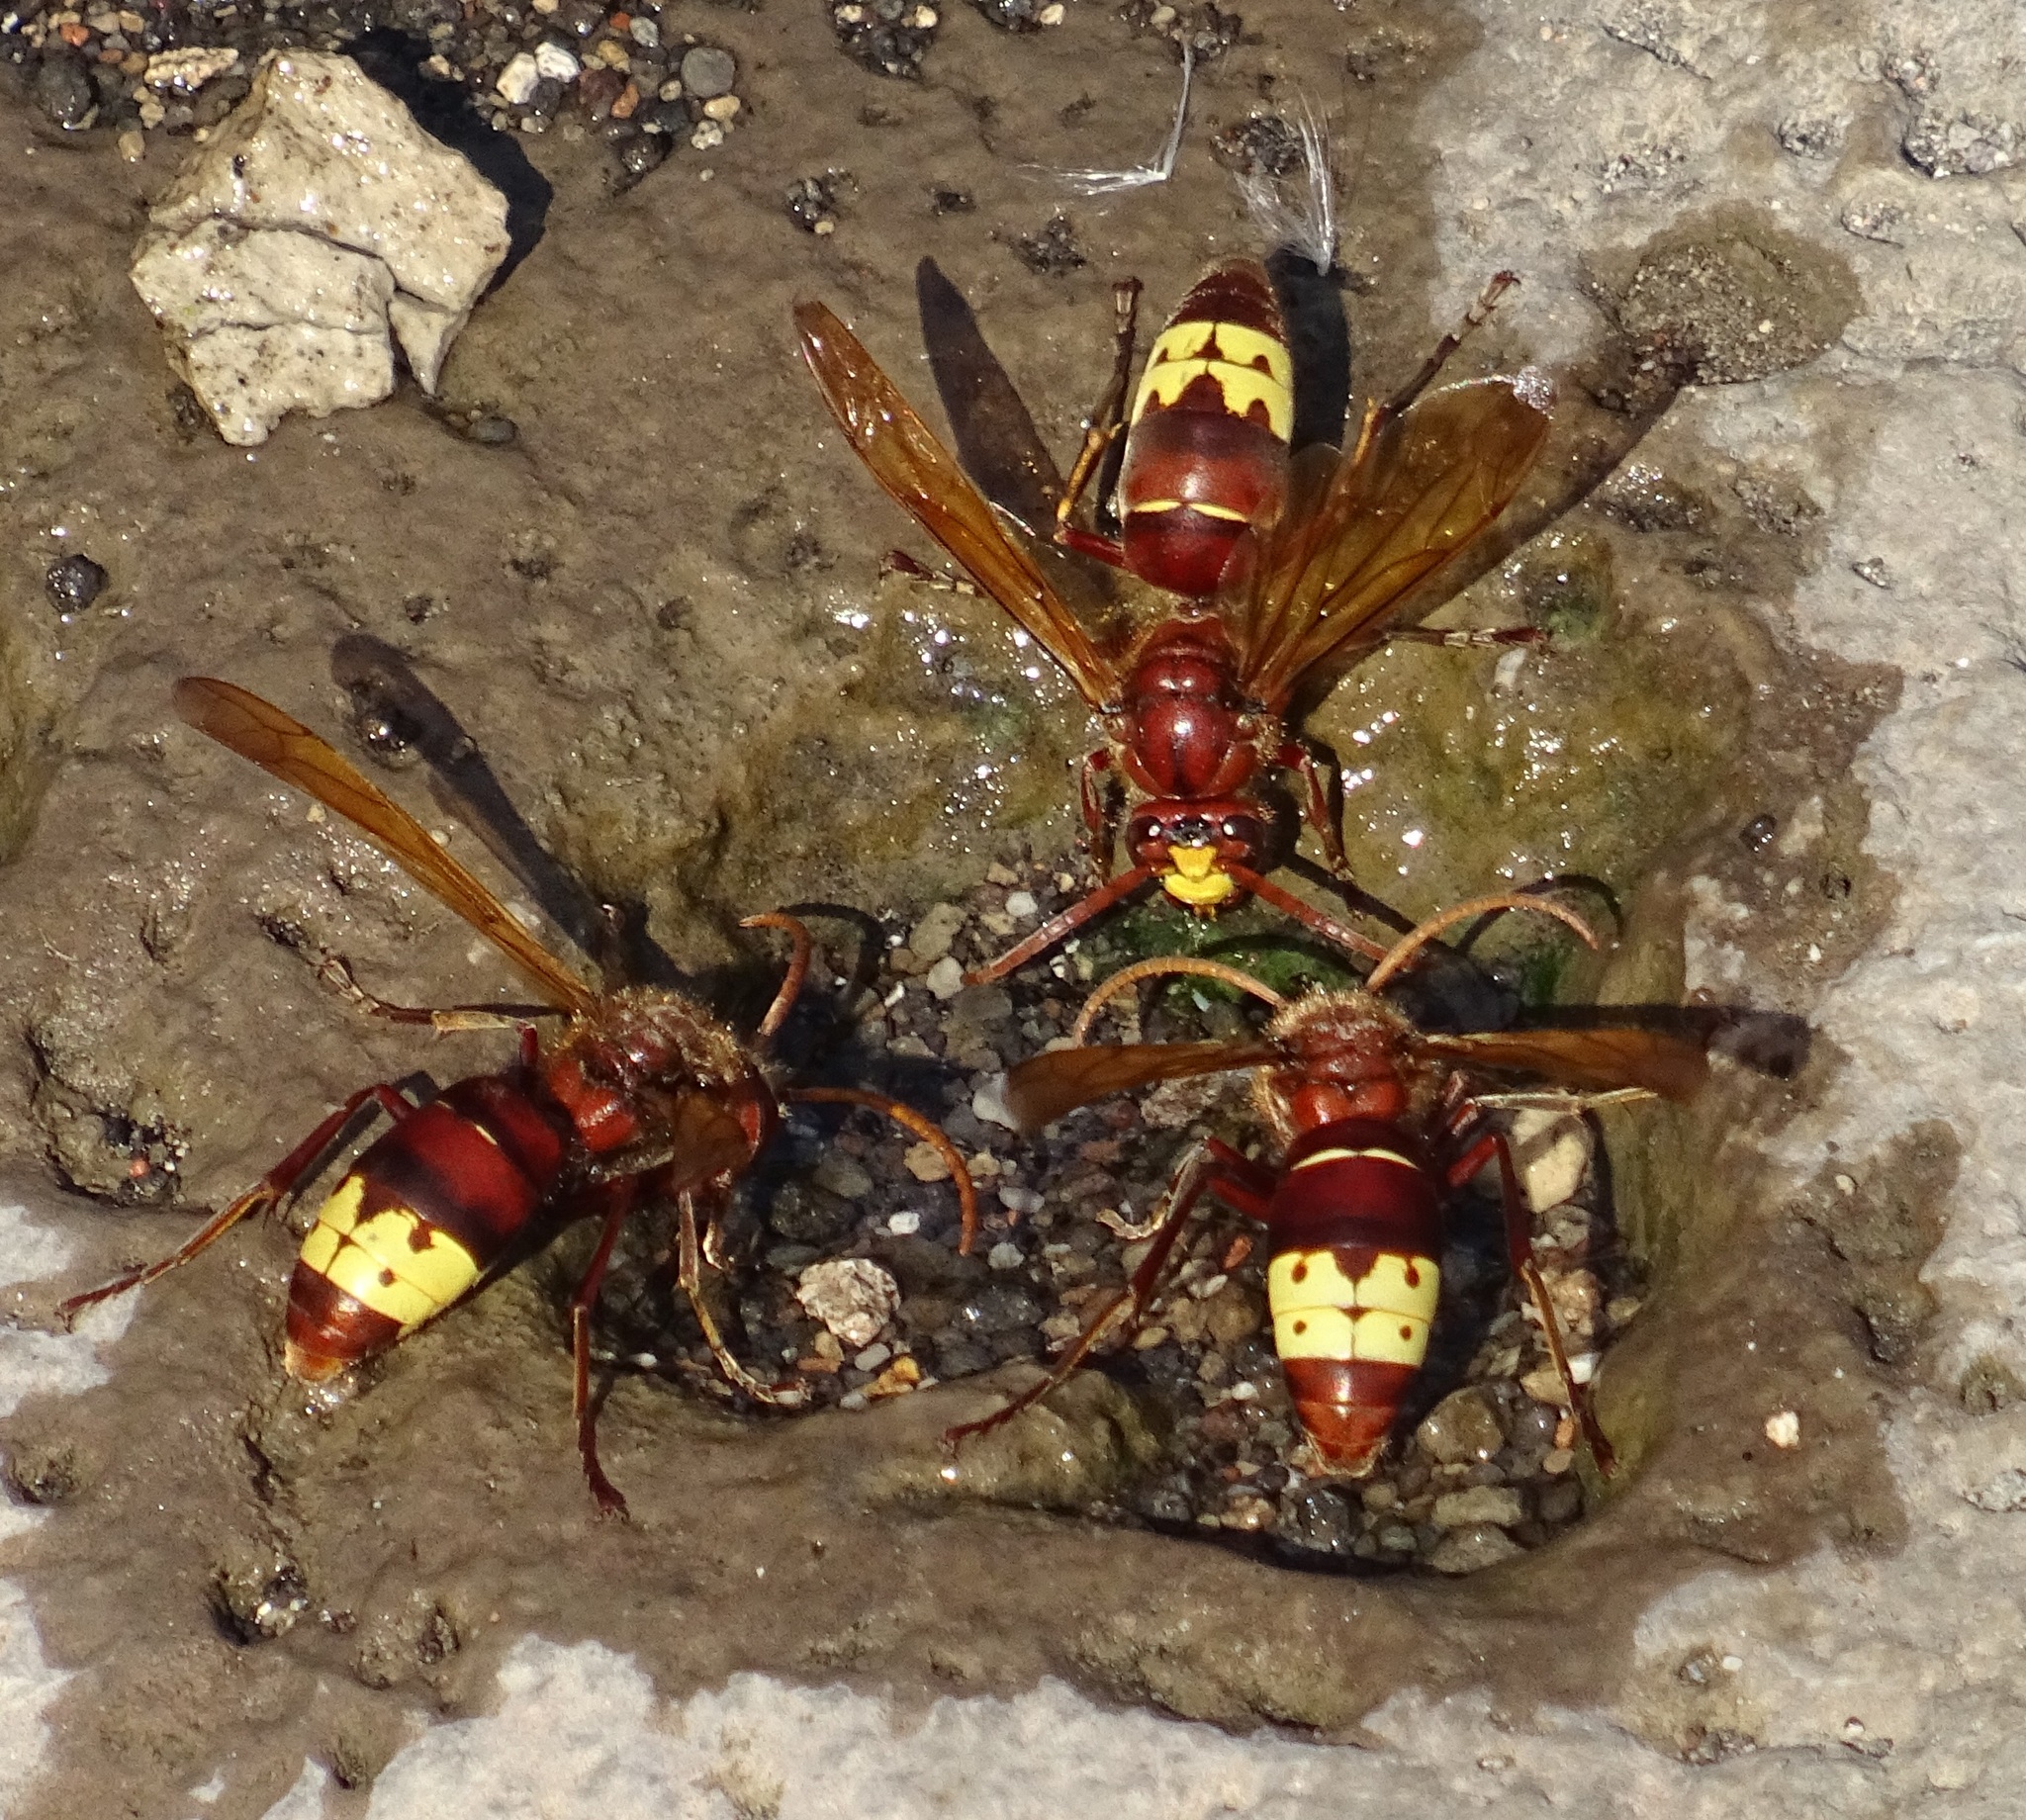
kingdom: Animalia
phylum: Arthropoda
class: Insecta
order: Hymenoptera
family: Vespidae
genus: Vespa
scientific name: Vespa orientalis
